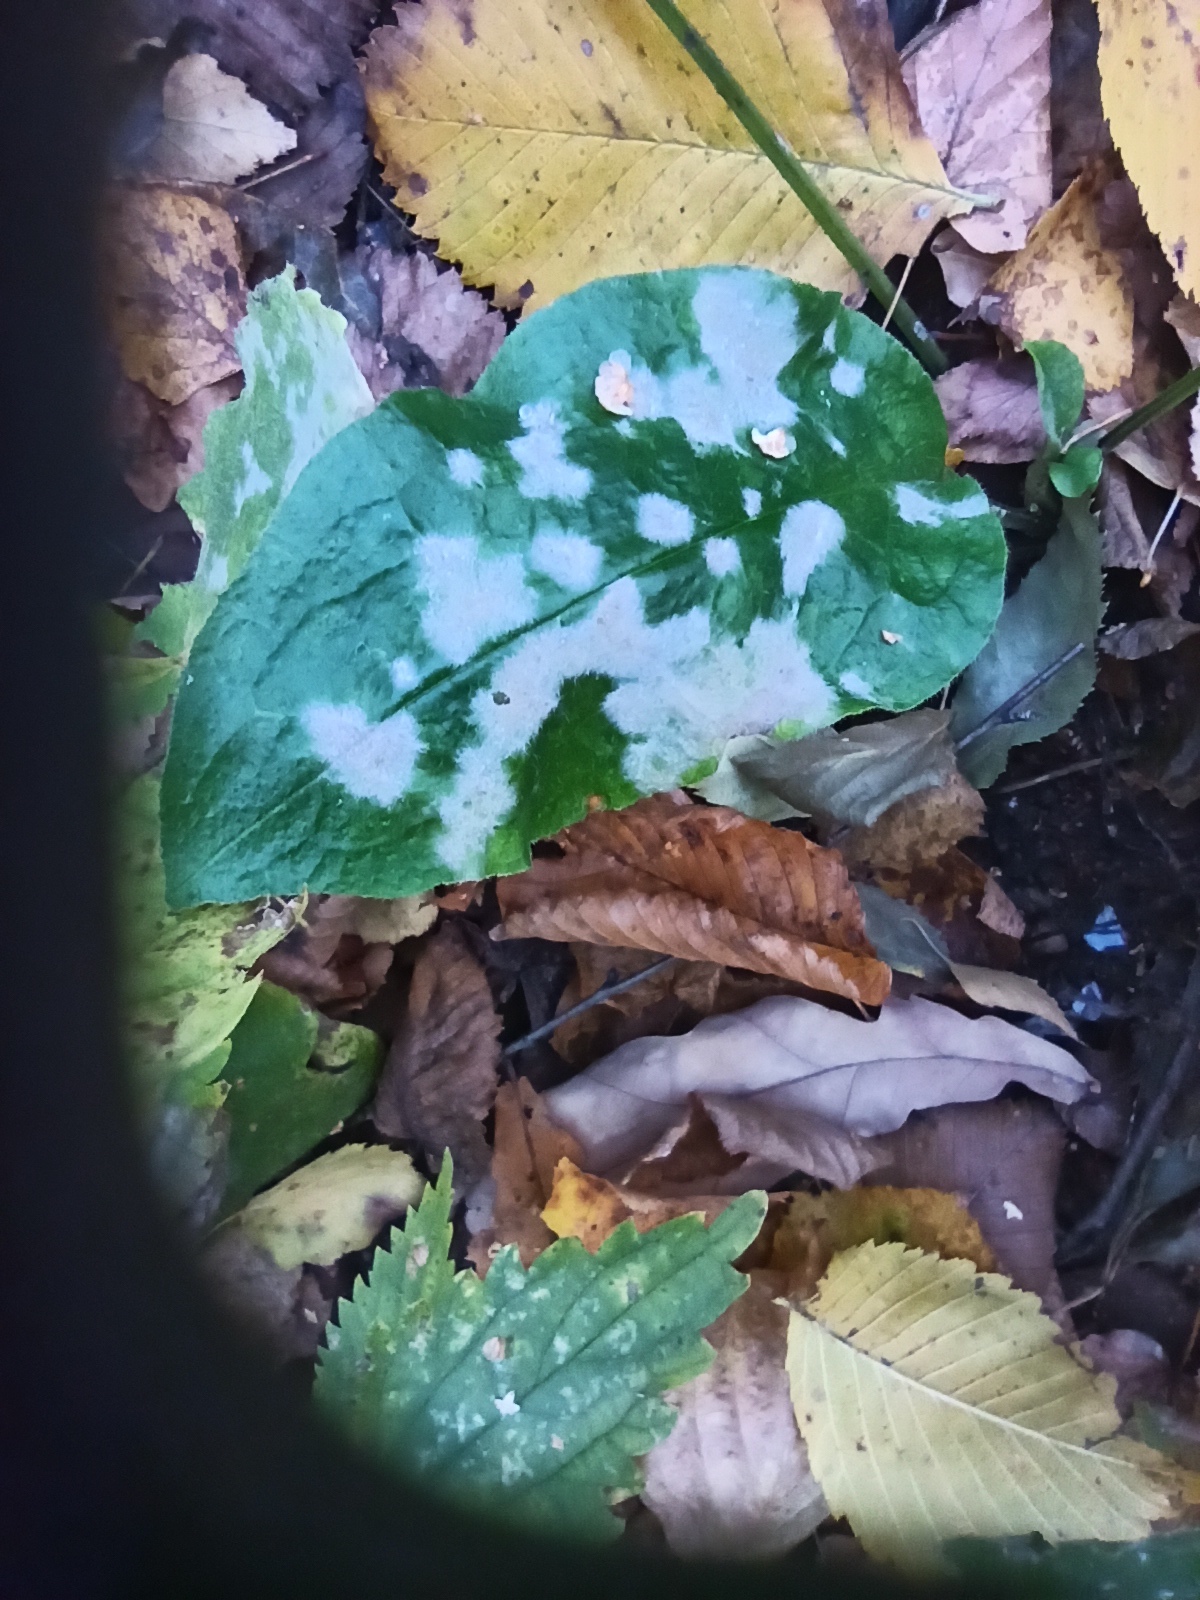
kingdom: Plantae
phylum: Tracheophyta
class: Magnoliopsida
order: Boraginales
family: Boraginaceae
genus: Pulmonaria
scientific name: Pulmonaria obscura
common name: Suffolk lungwort
